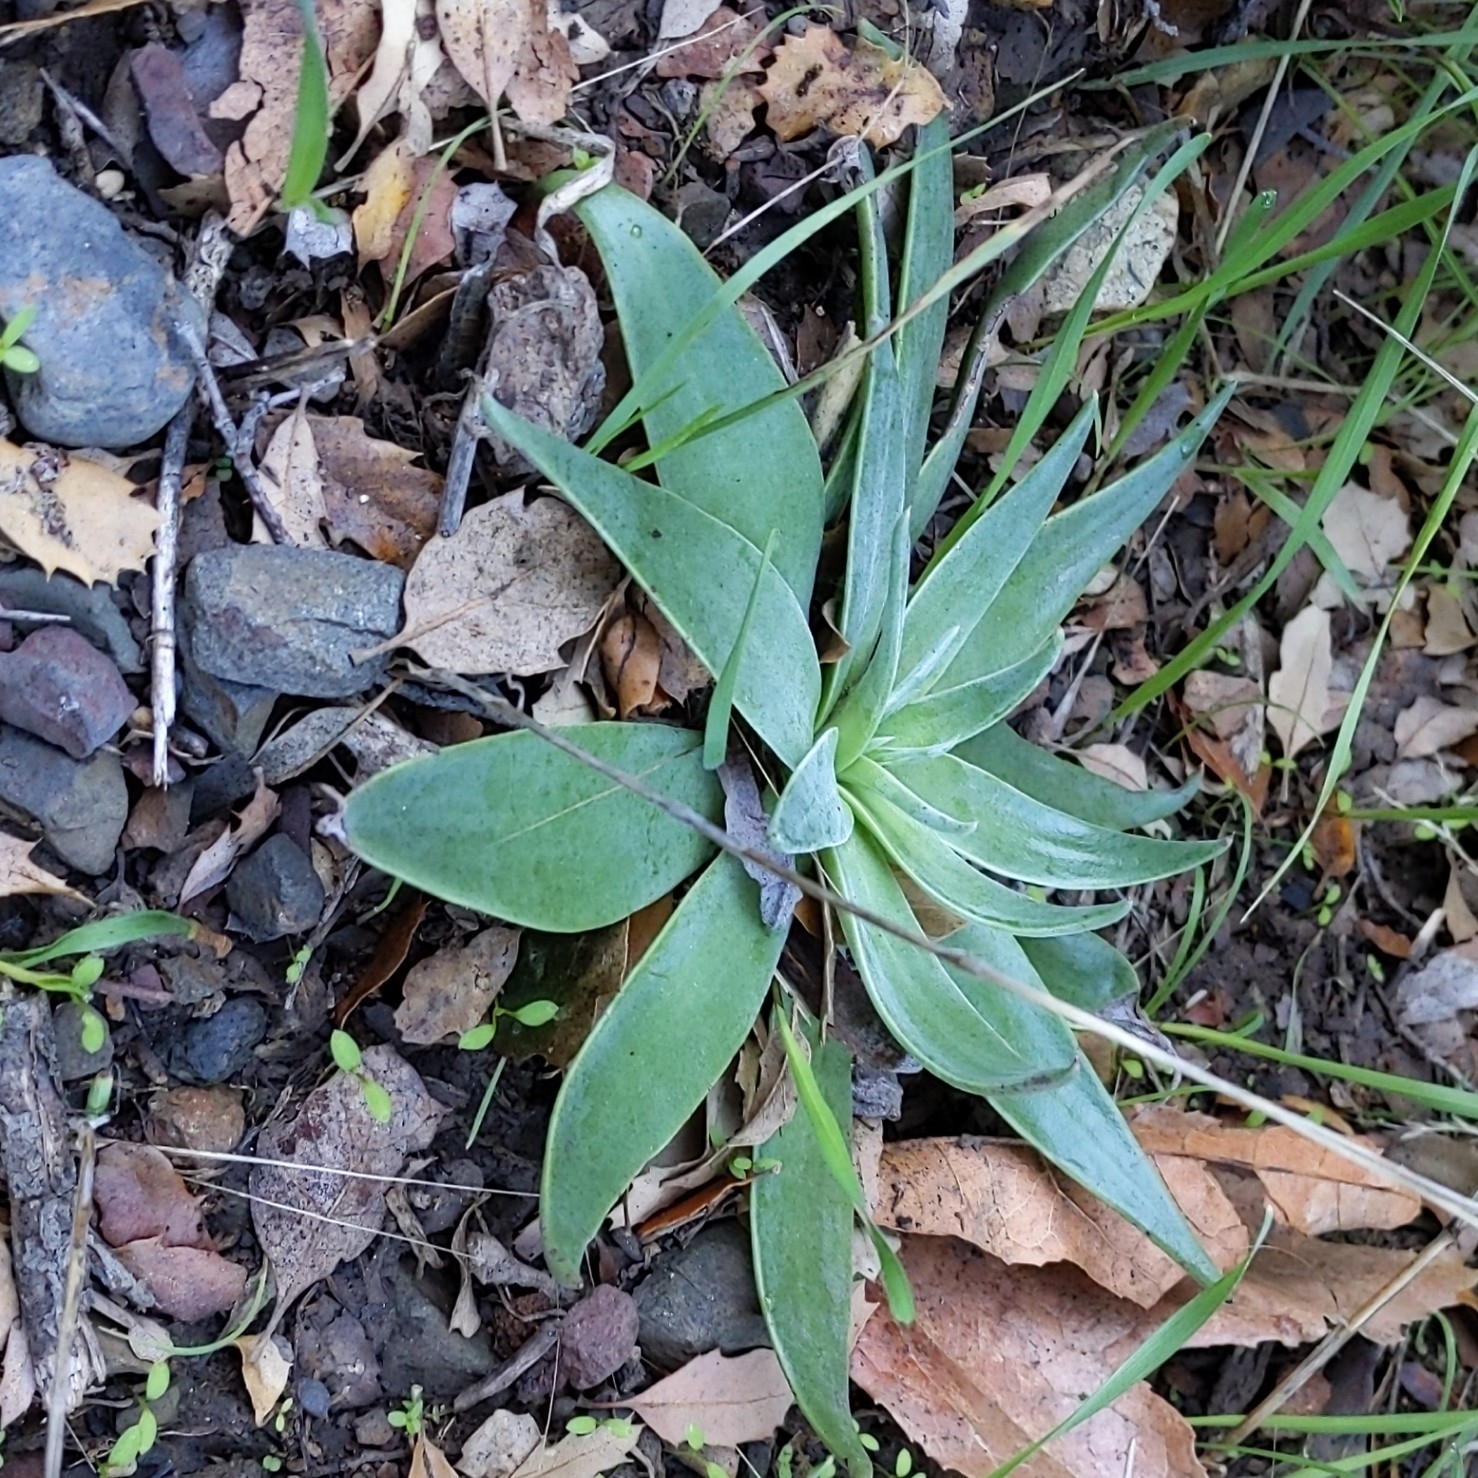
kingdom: Plantae
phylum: Tracheophyta
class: Magnoliopsida
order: Saxifragales
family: Crassulaceae
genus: Dudleya
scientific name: Dudleya lanceolata
